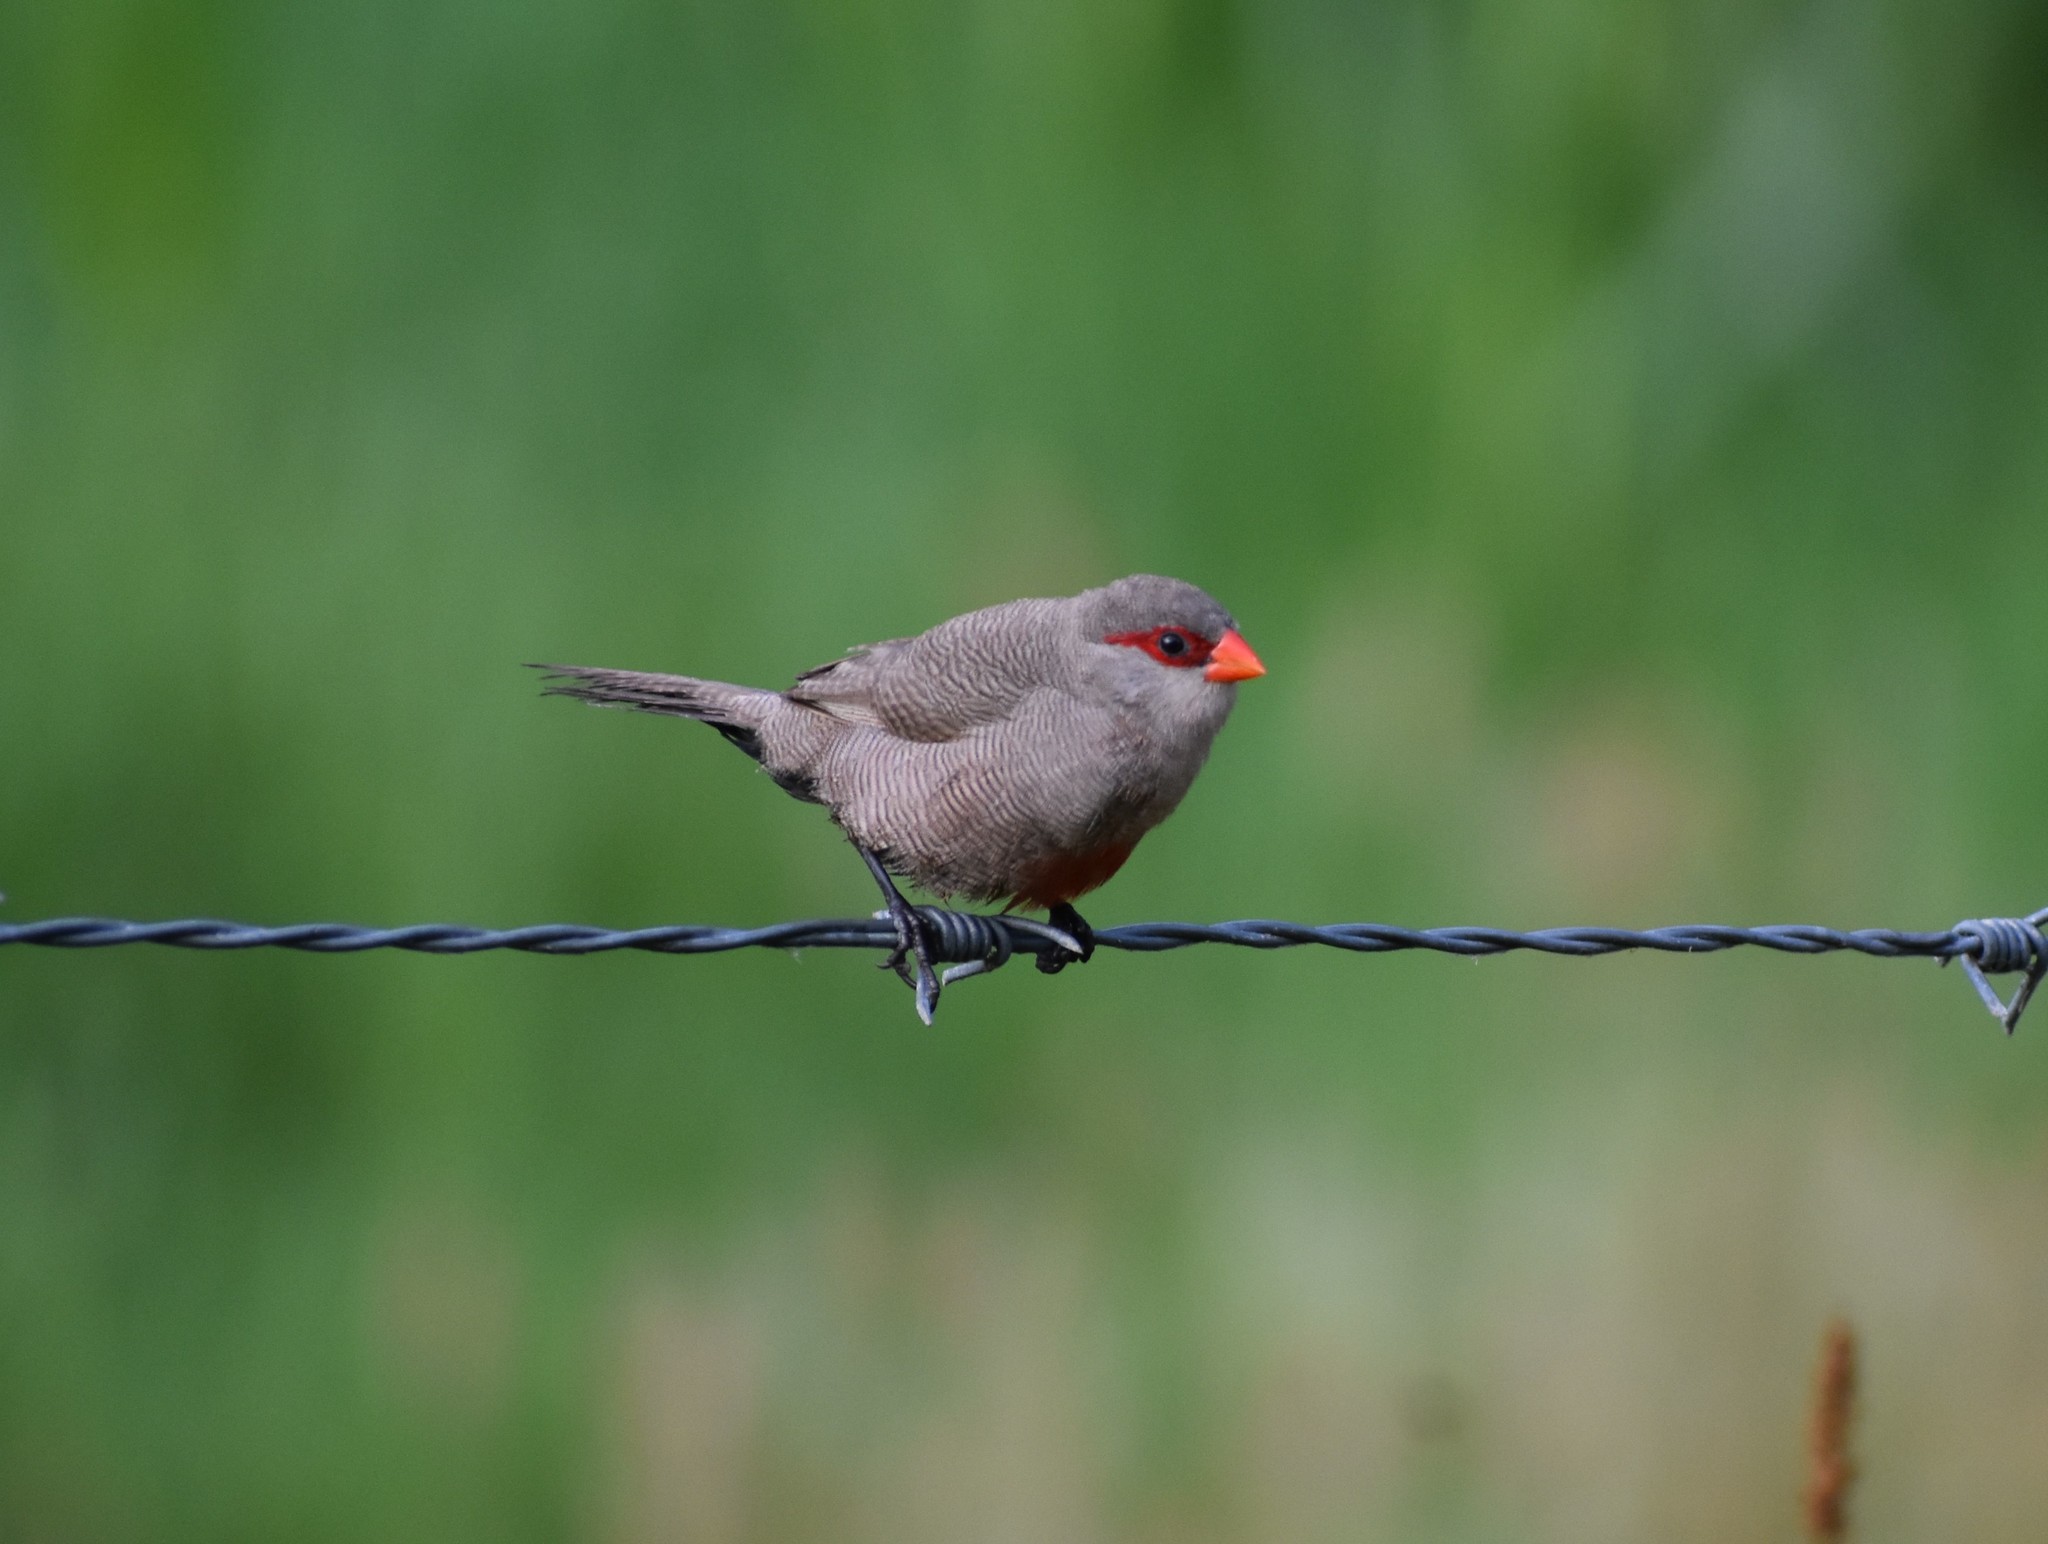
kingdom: Animalia
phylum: Chordata
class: Aves
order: Passeriformes
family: Estrildidae
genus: Estrilda
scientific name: Estrilda astrild
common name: Common waxbill
